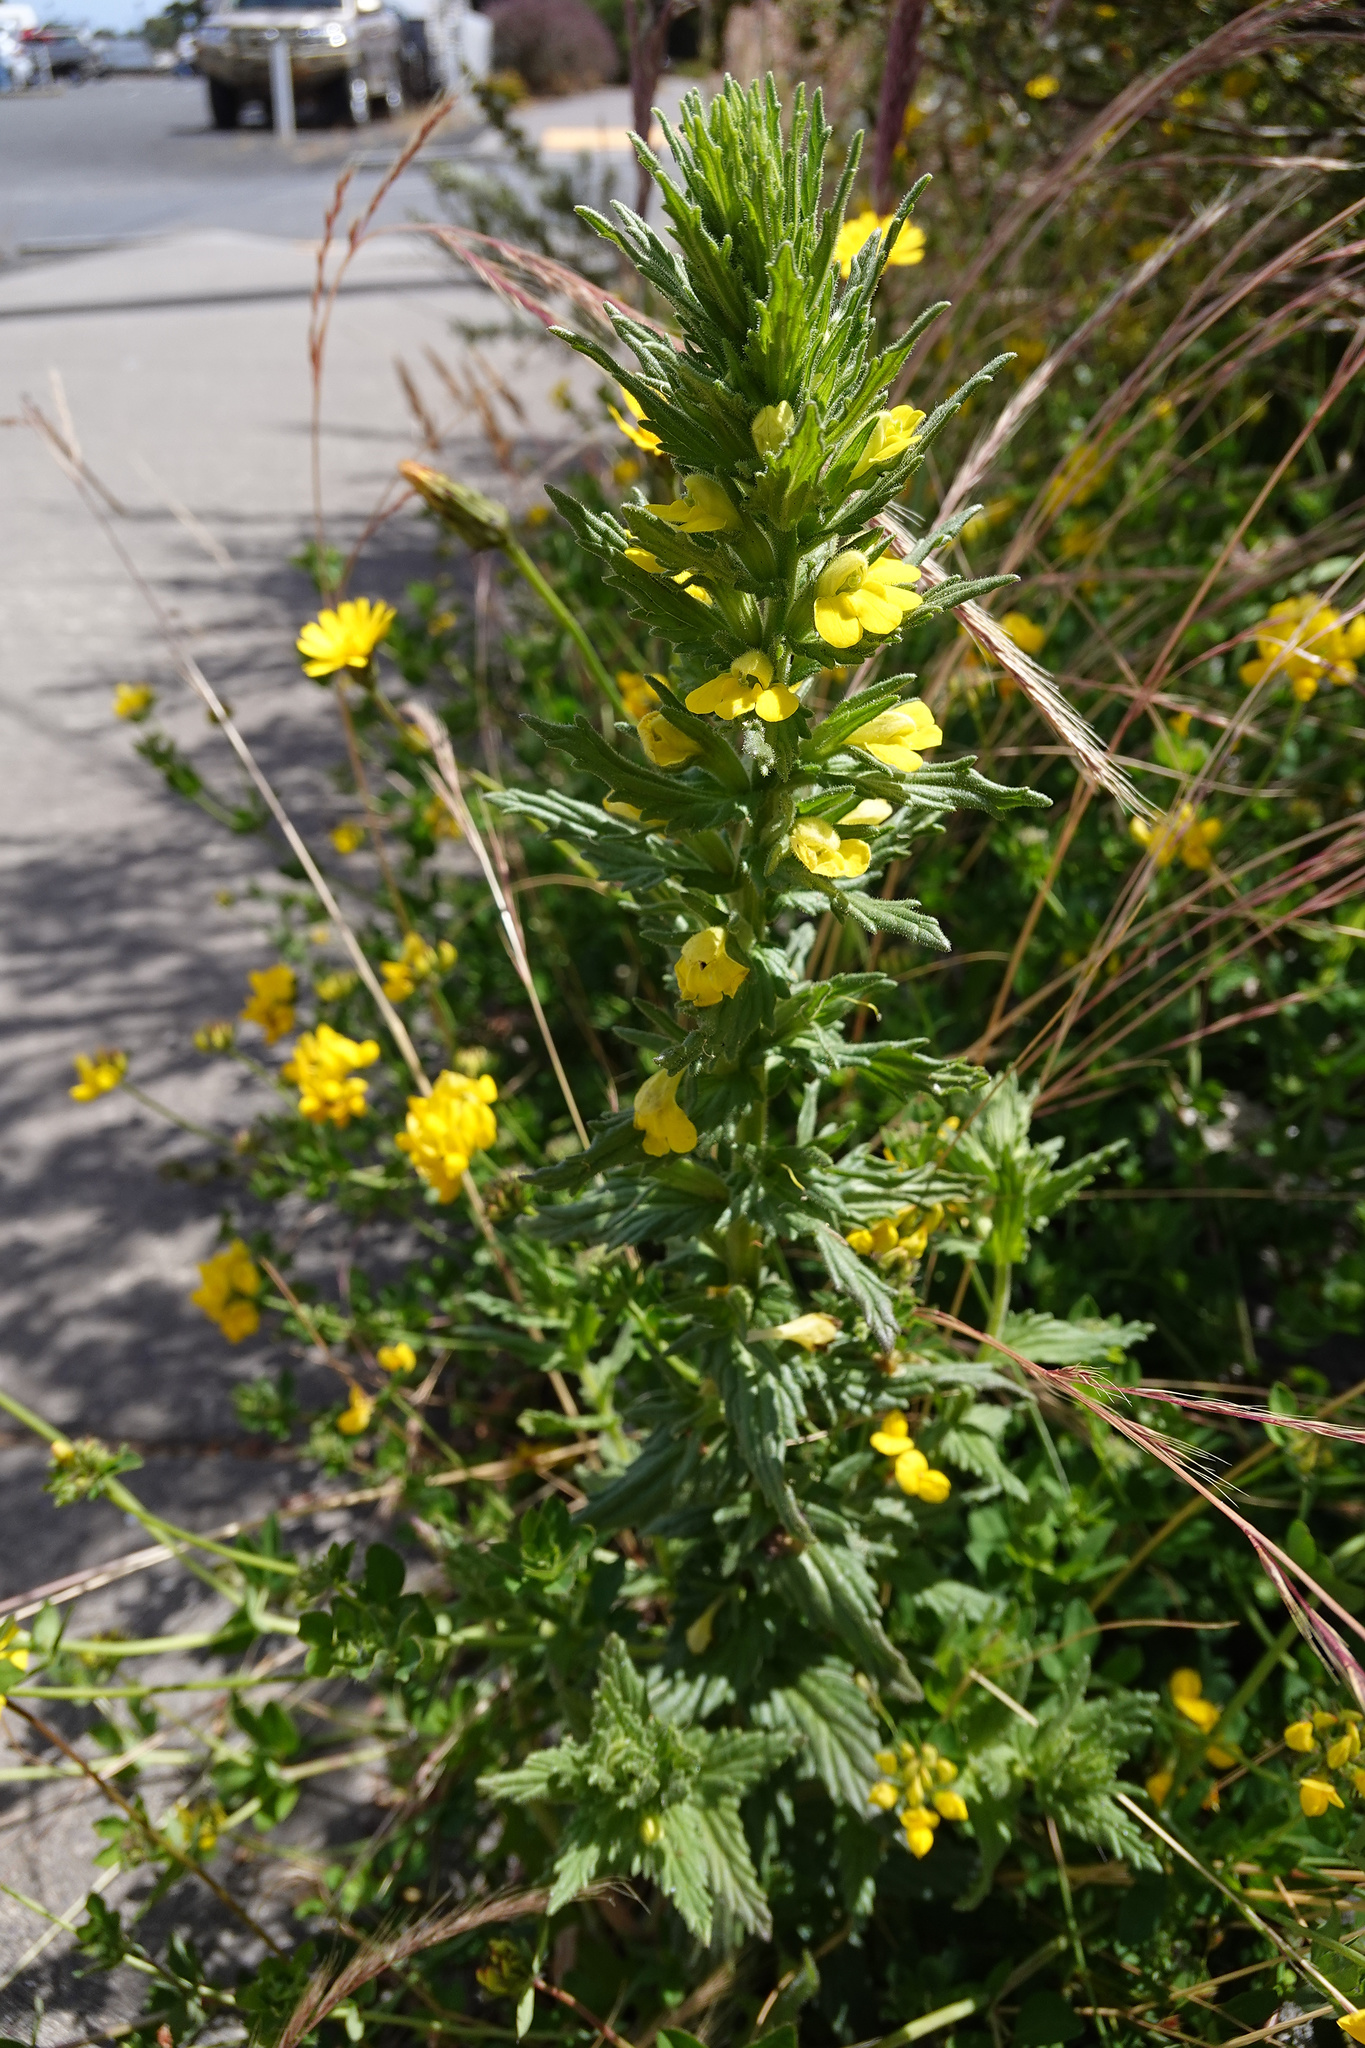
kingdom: Plantae
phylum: Tracheophyta
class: Magnoliopsida
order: Lamiales
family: Orobanchaceae
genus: Bellardia
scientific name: Bellardia viscosa
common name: Sticky parentucellia
